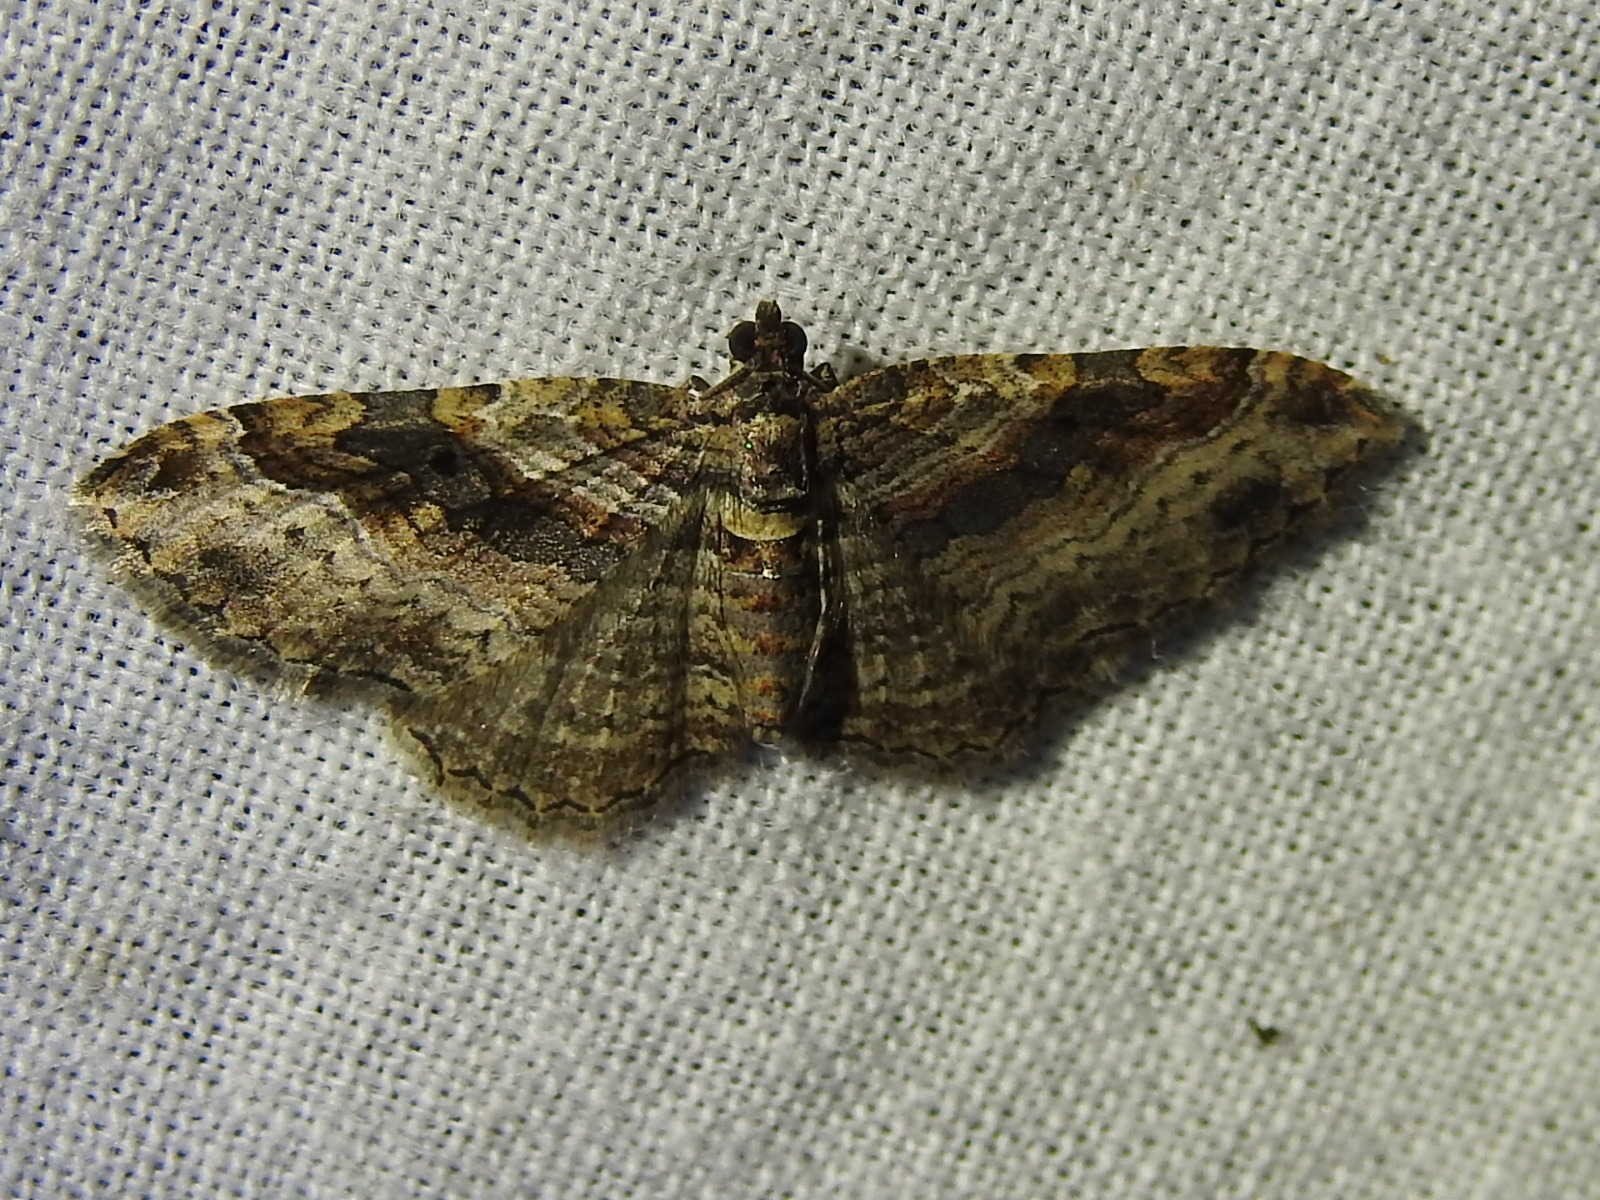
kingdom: Animalia
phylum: Arthropoda
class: Insecta
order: Lepidoptera
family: Geometridae
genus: Costaconvexa
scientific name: Costaconvexa centrostrigaria
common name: Bent-line carpet
